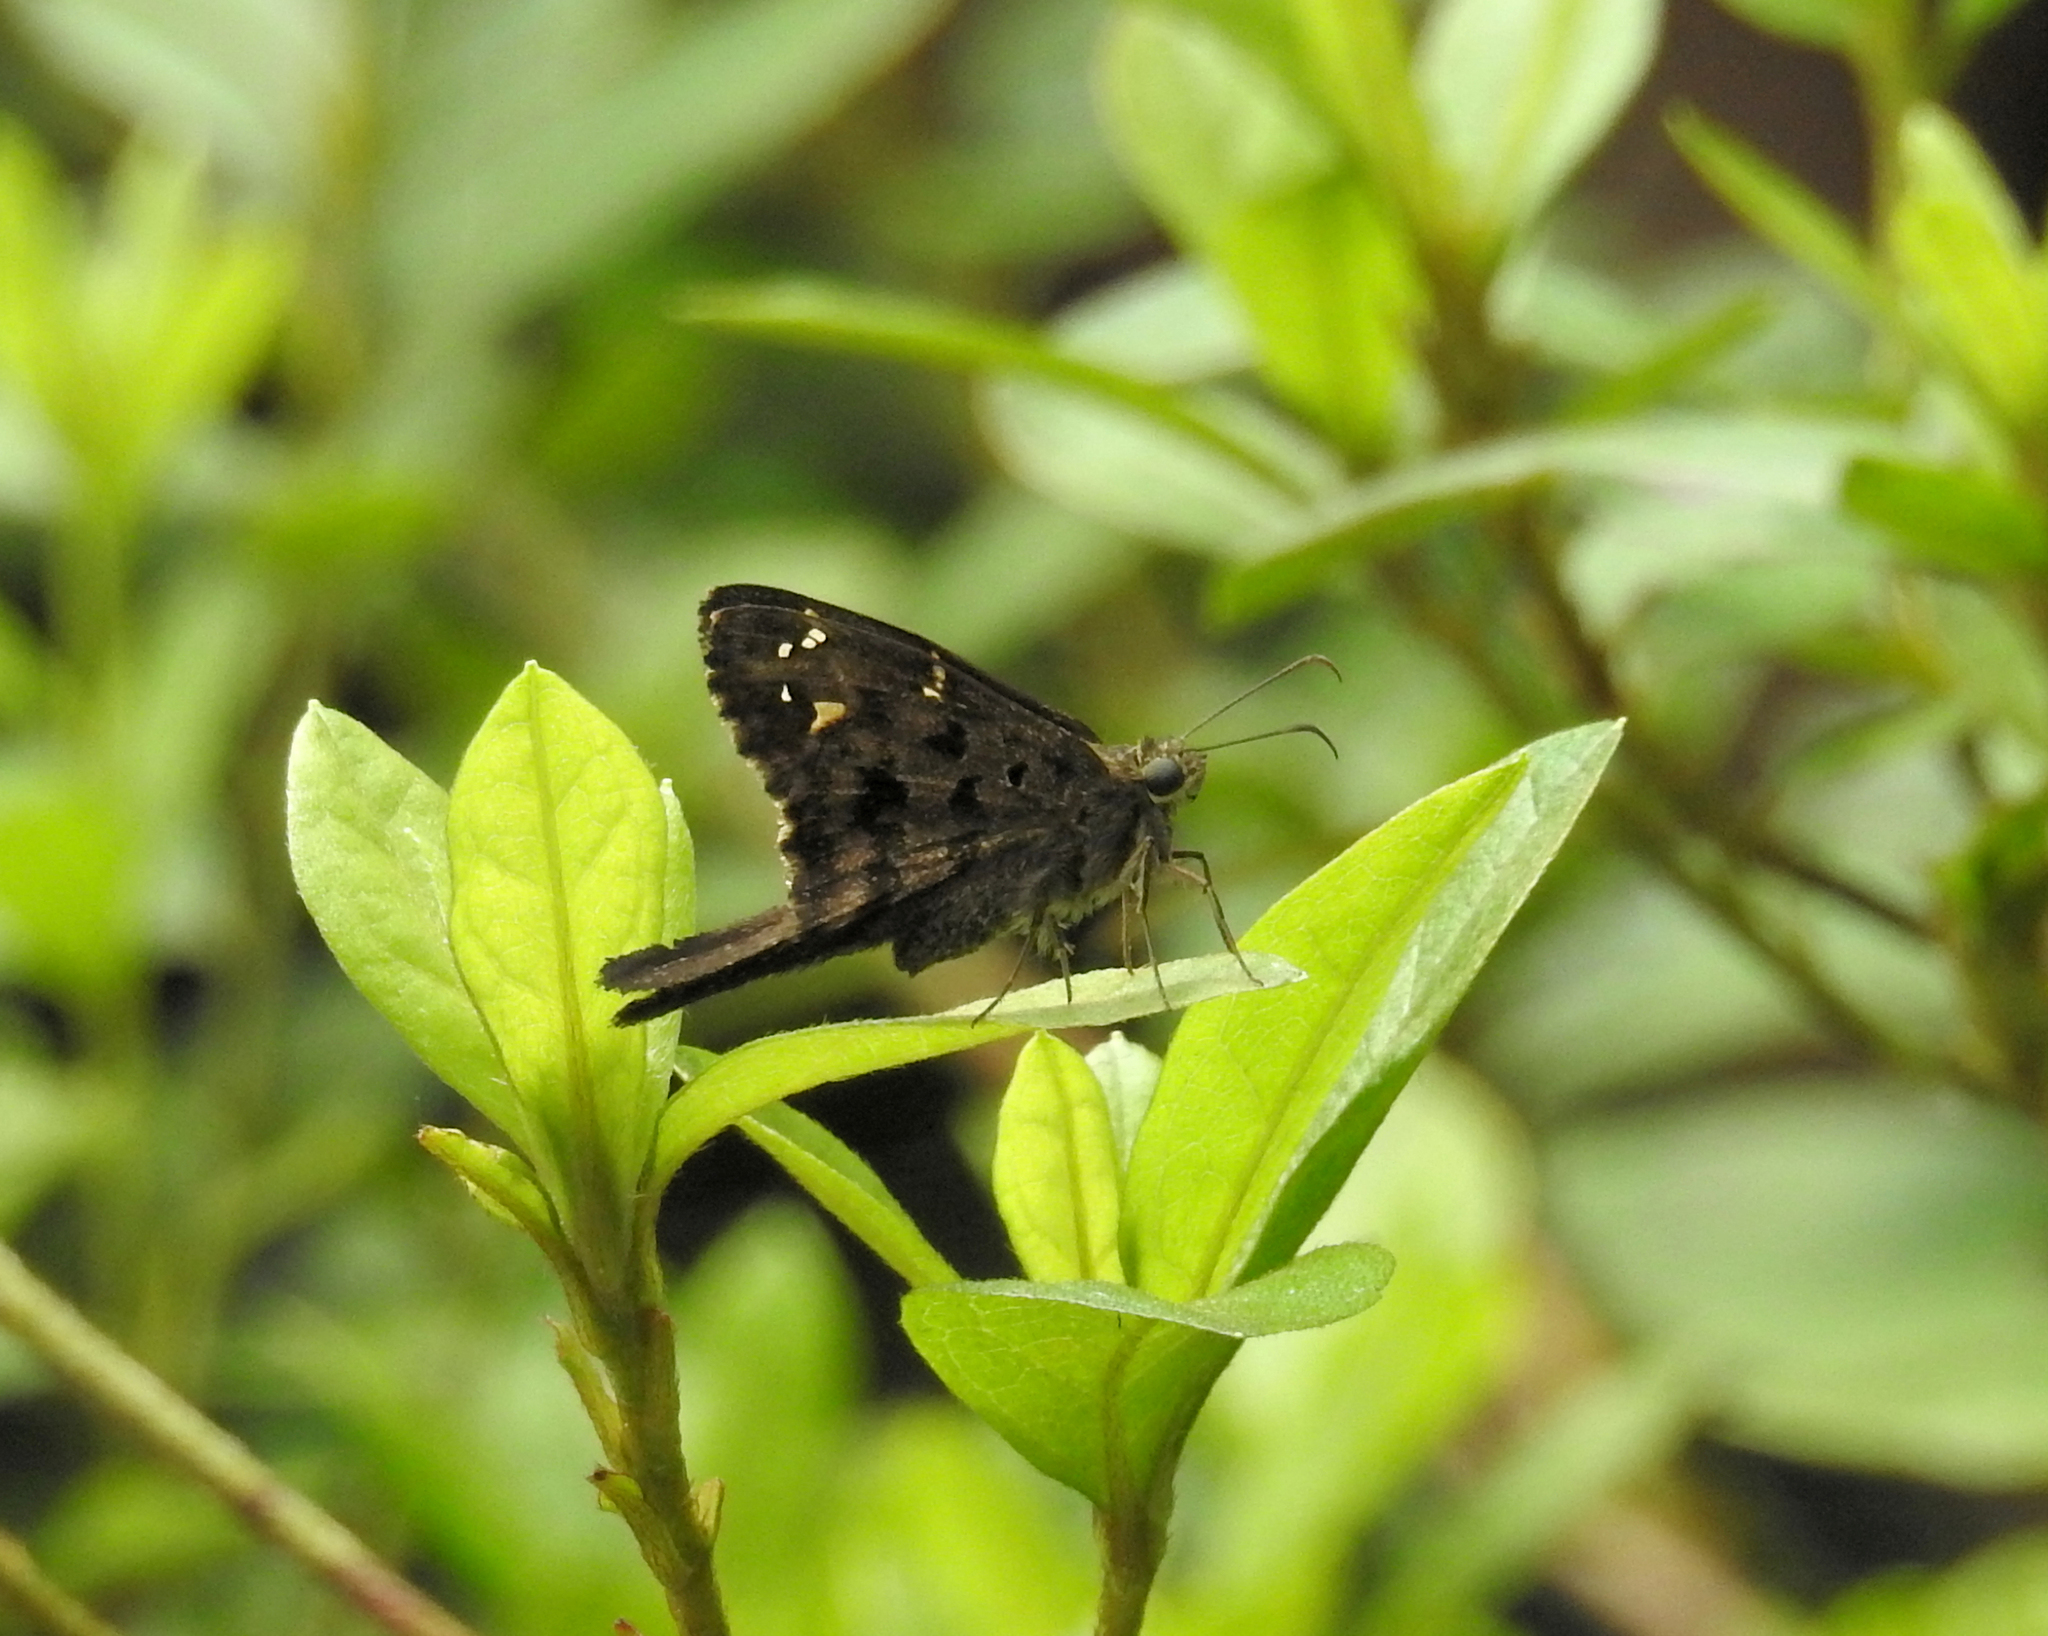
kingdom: Animalia
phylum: Arthropoda
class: Insecta
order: Lepidoptera
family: Hesperiidae
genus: Thorybes
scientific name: Thorybes
